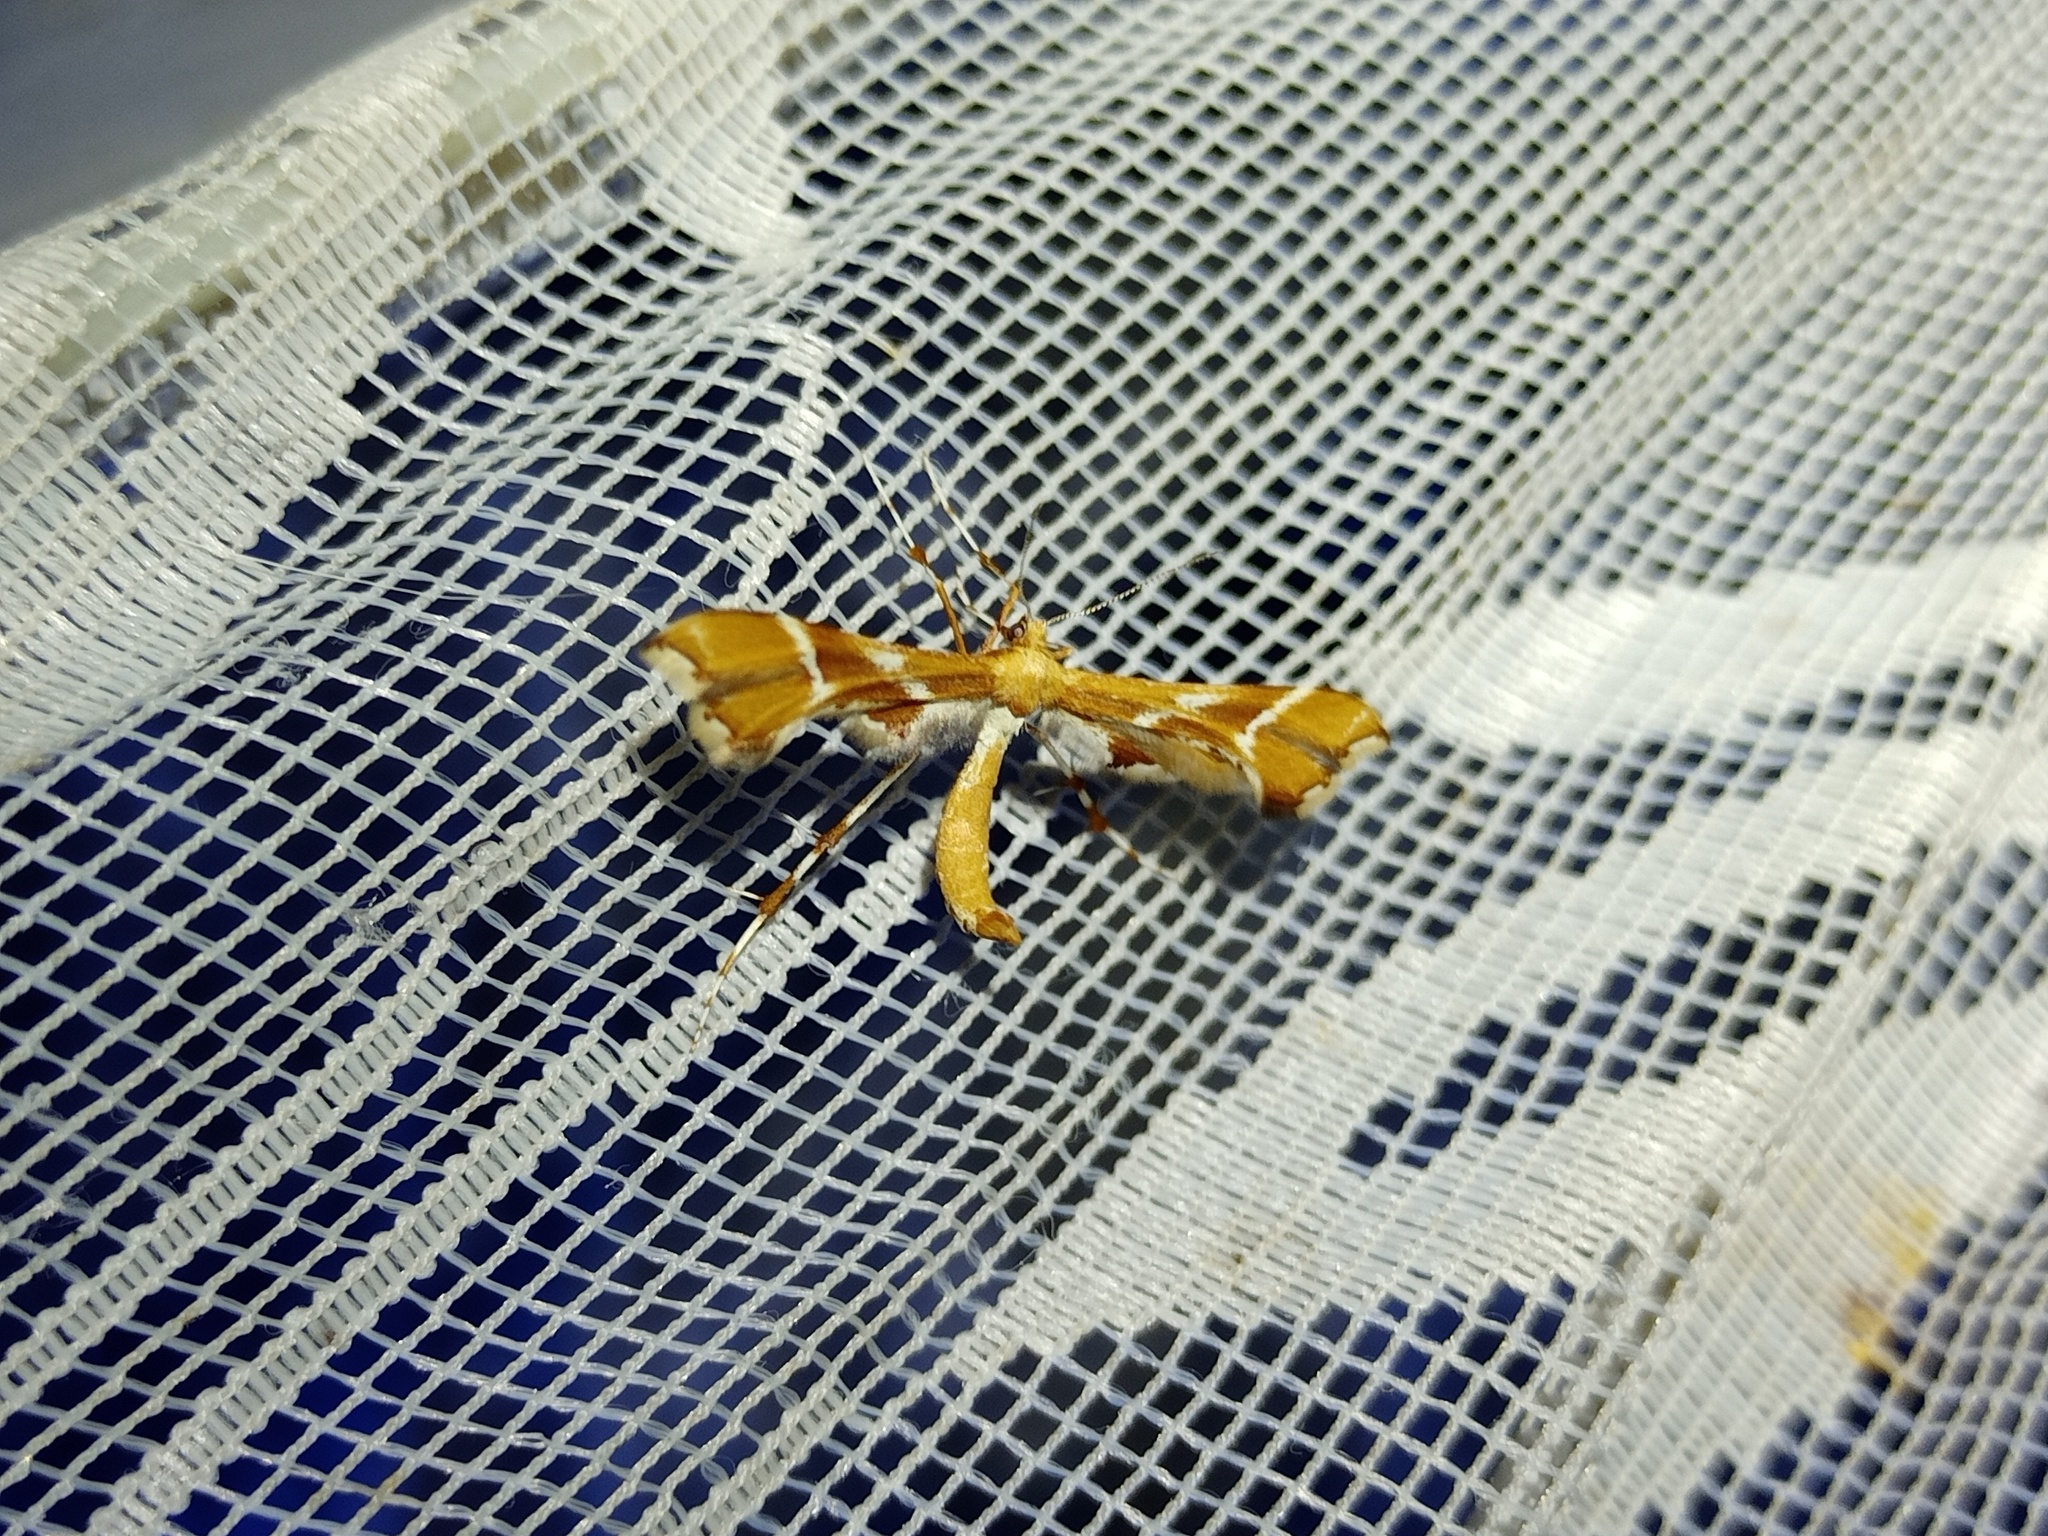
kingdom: Animalia
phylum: Arthropoda
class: Insecta
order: Lepidoptera
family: Pterophoridae
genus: Cnaemidophorus
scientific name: Cnaemidophorus rhododactyla
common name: Rose plume
